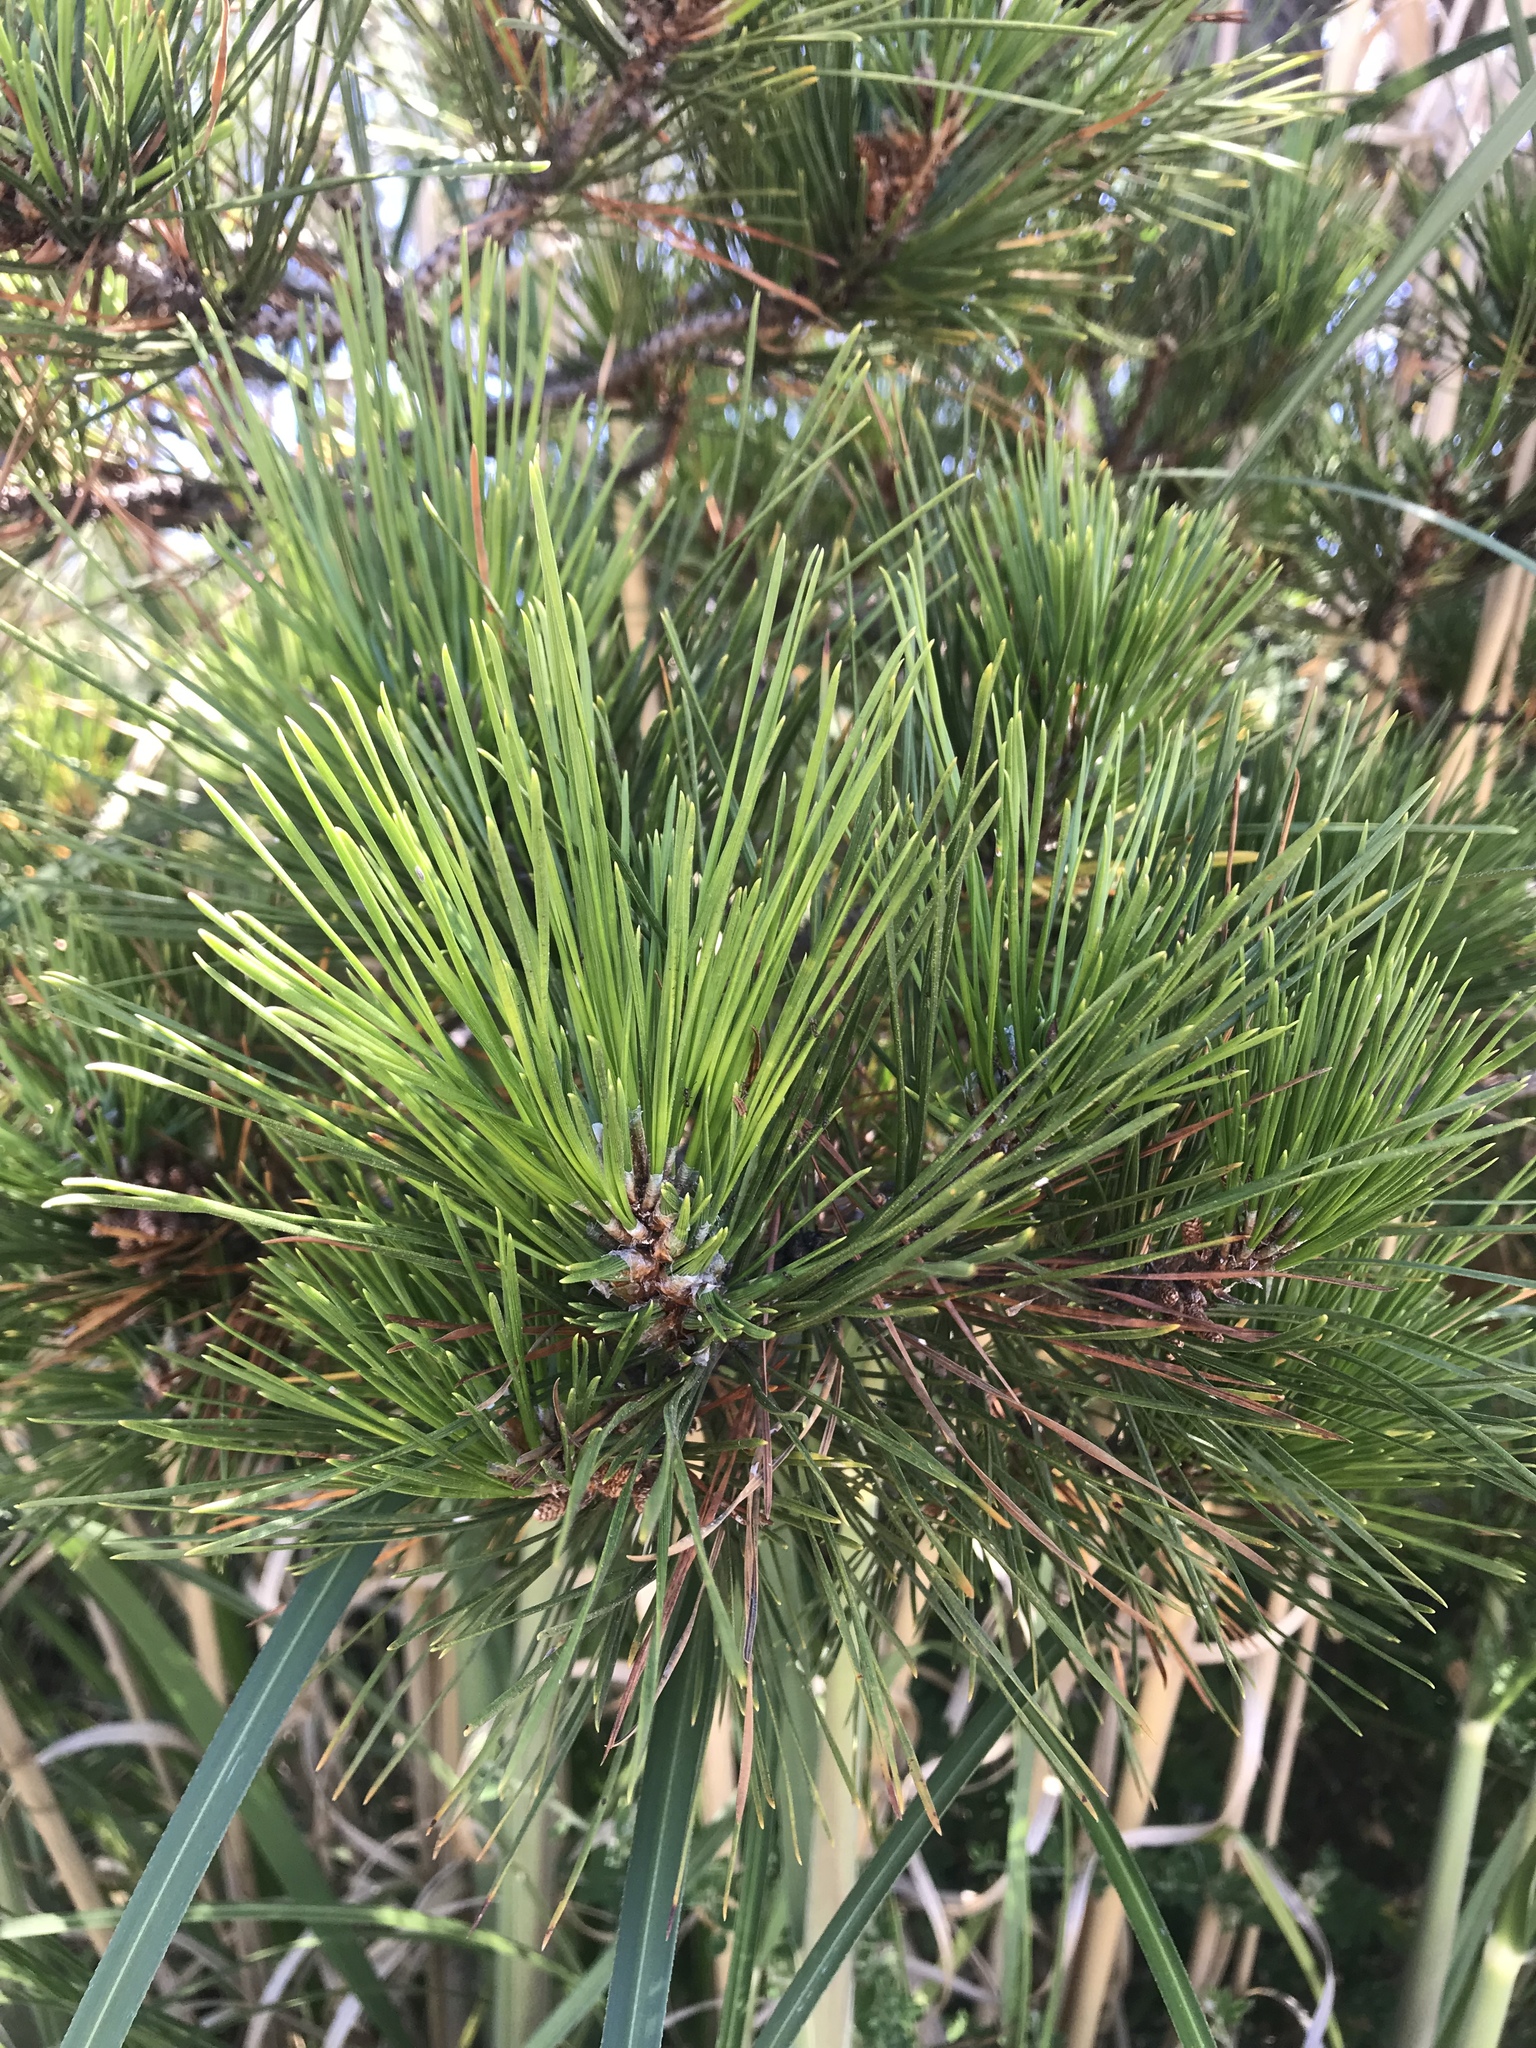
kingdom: Plantae
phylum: Tracheophyta
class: Pinopsida
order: Pinales
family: Pinaceae
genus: Pinus
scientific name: Pinus radiata
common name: Monterey pine
